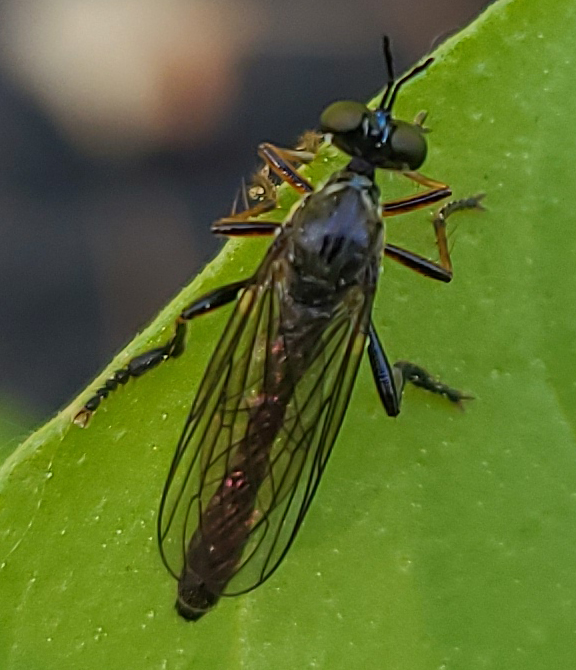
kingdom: Animalia
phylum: Arthropoda
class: Insecta
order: Diptera
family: Asilidae
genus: Dioctria
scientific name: Dioctria hyalipennis
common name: Stripe-legged robberfly
